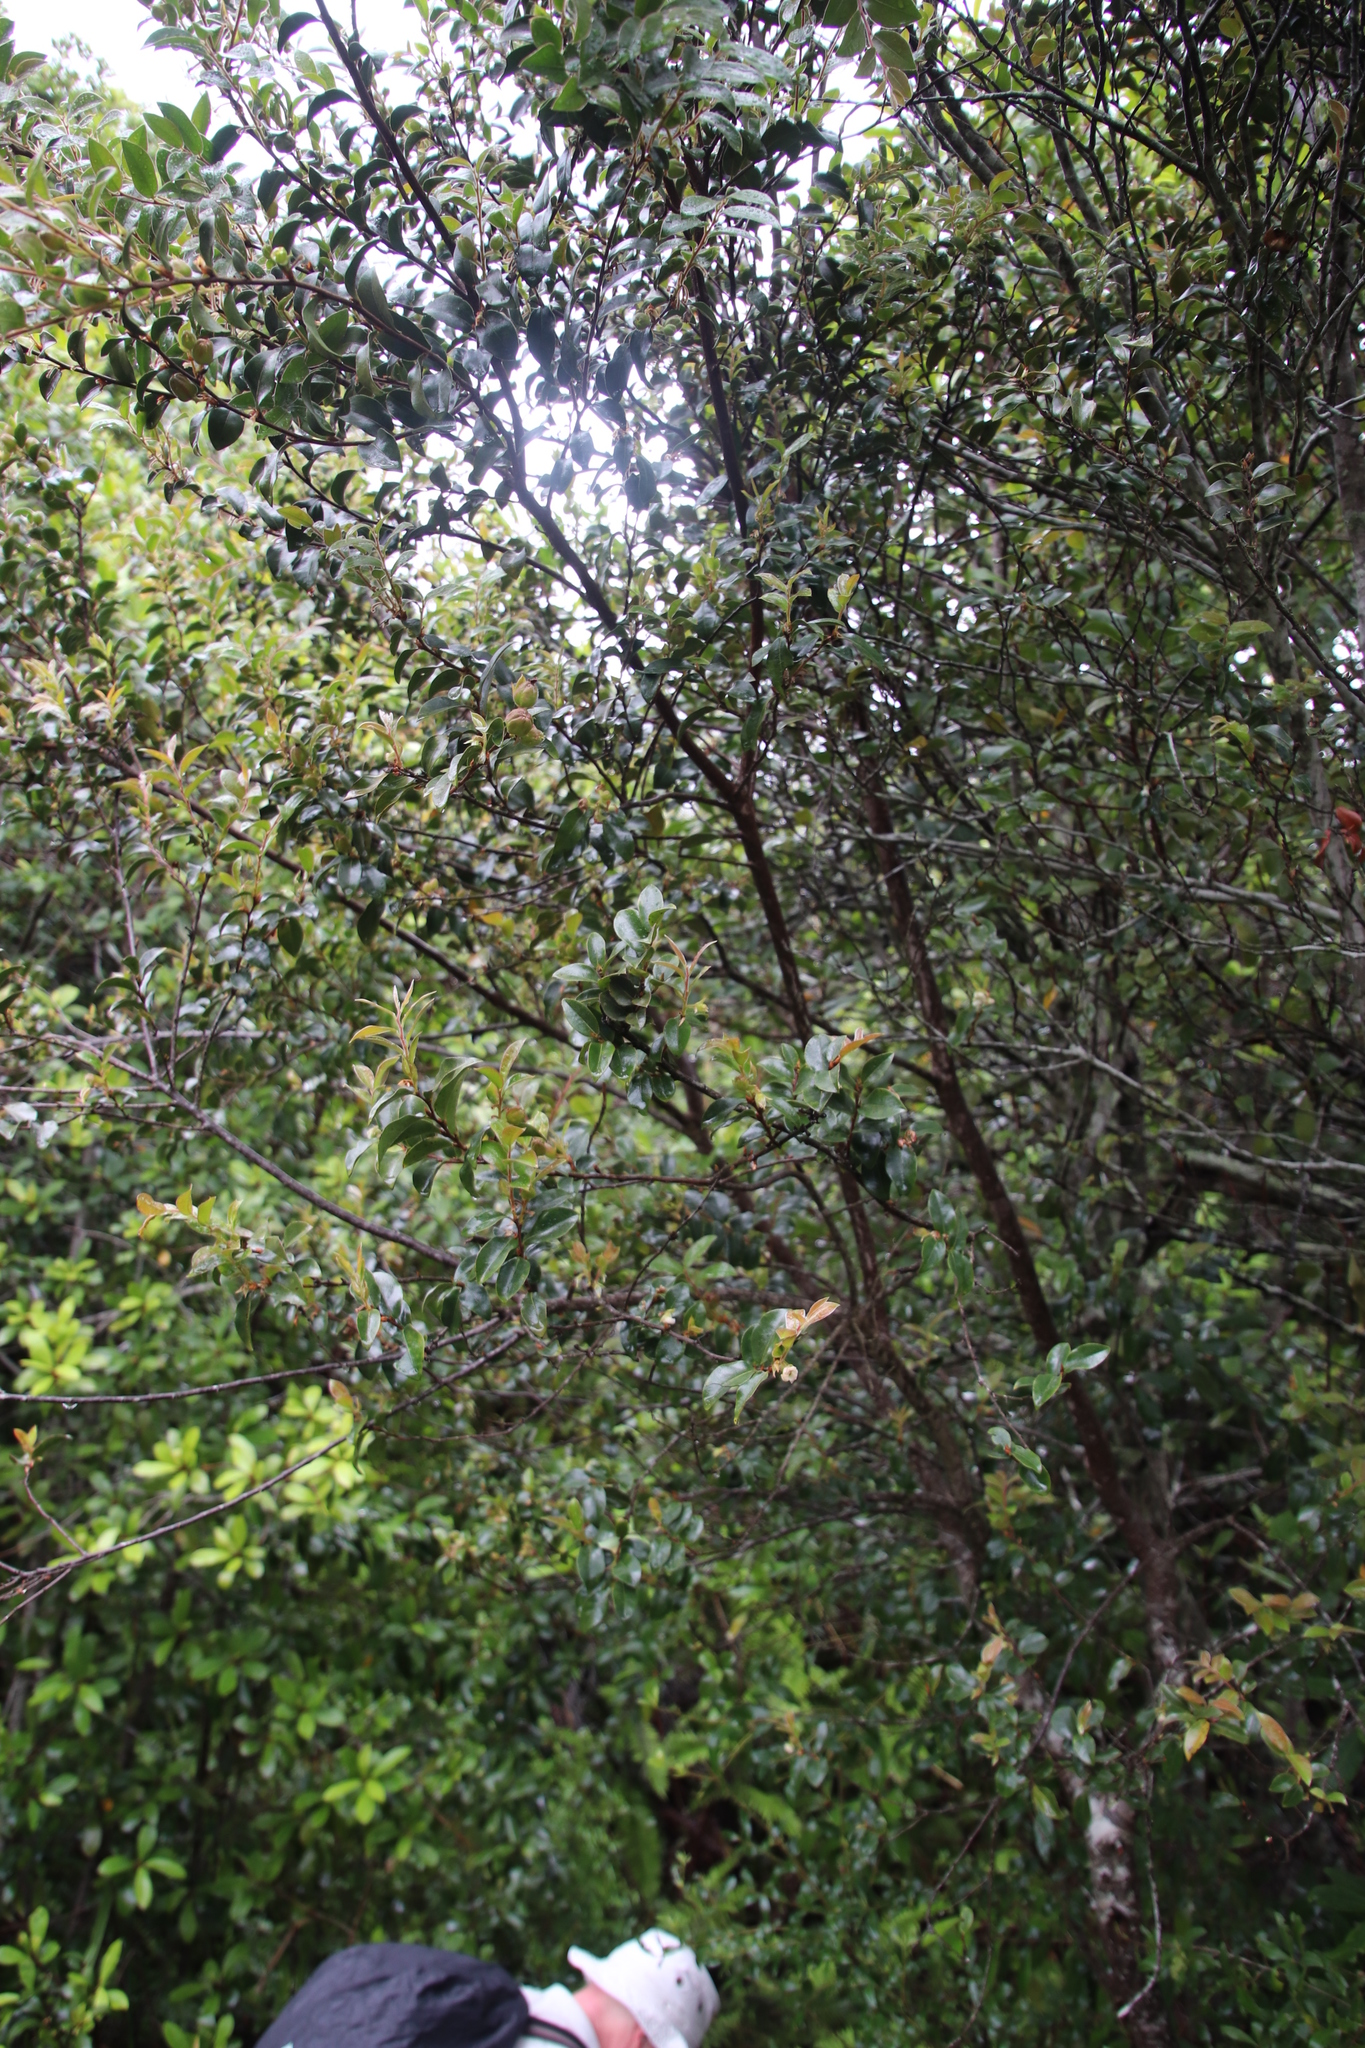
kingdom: Plantae
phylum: Tracheophyta
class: Magnoliopsida
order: Ericales
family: Ebenaceae
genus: Diospyros
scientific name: Diospyros whyteana
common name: Bladder-nut
